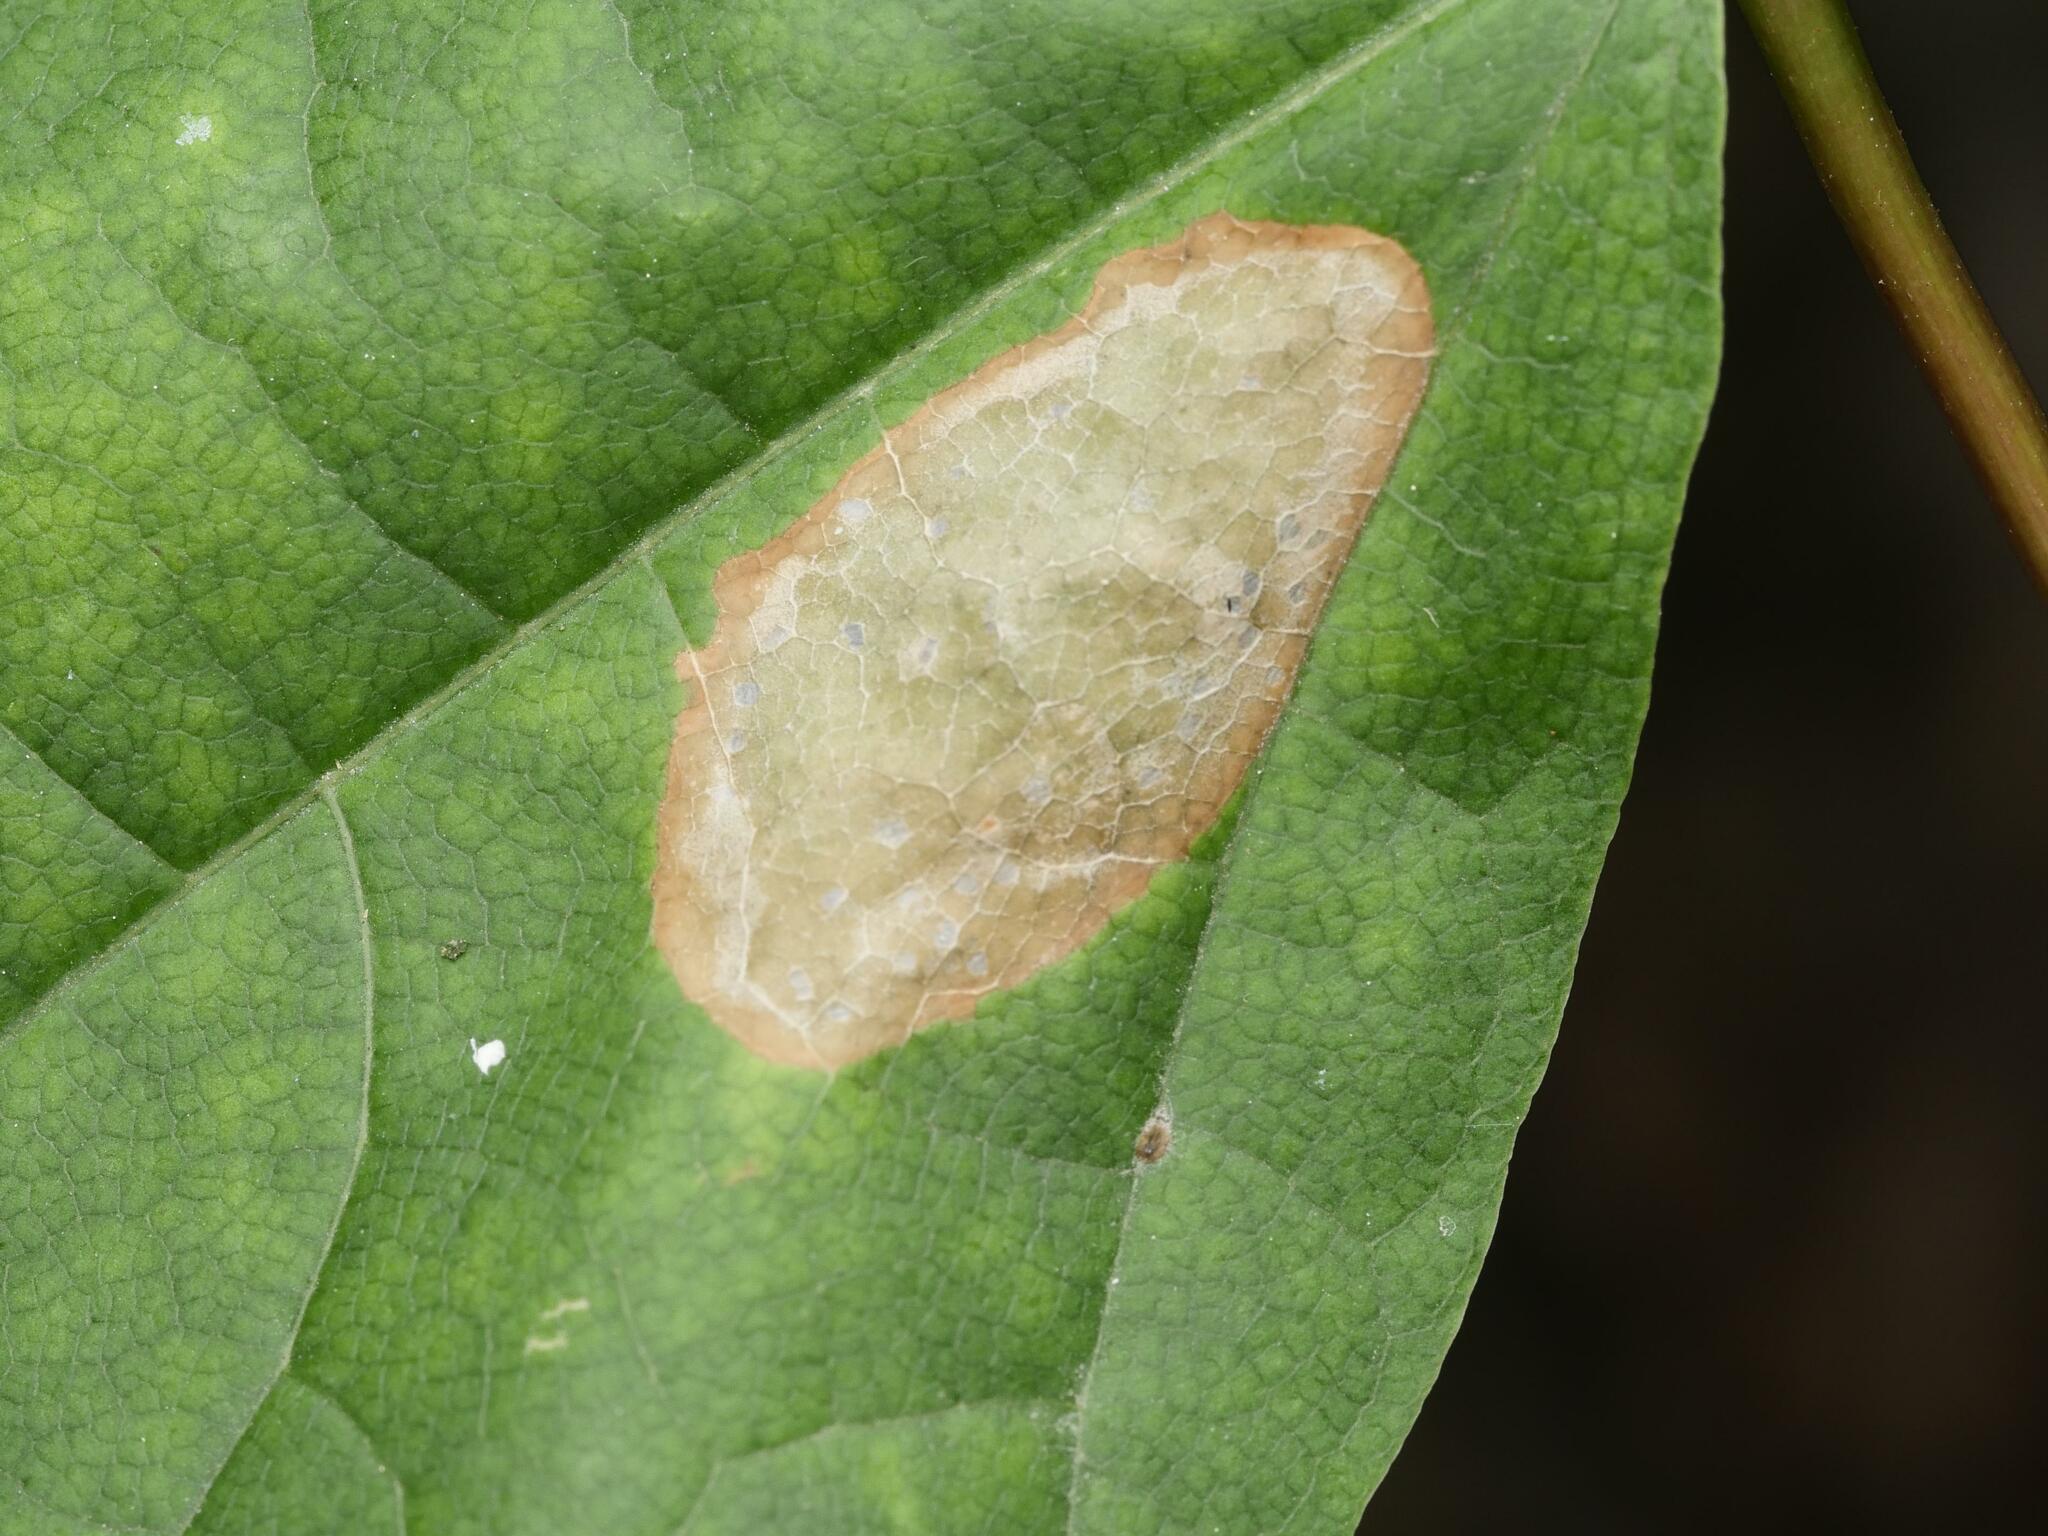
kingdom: Animalia
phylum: Arthropoda
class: Insecta
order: Lepidoptera
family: Gracillariidae
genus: Phyllonorycter
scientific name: Phyllonorycter joannisi
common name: White-bodied midget
